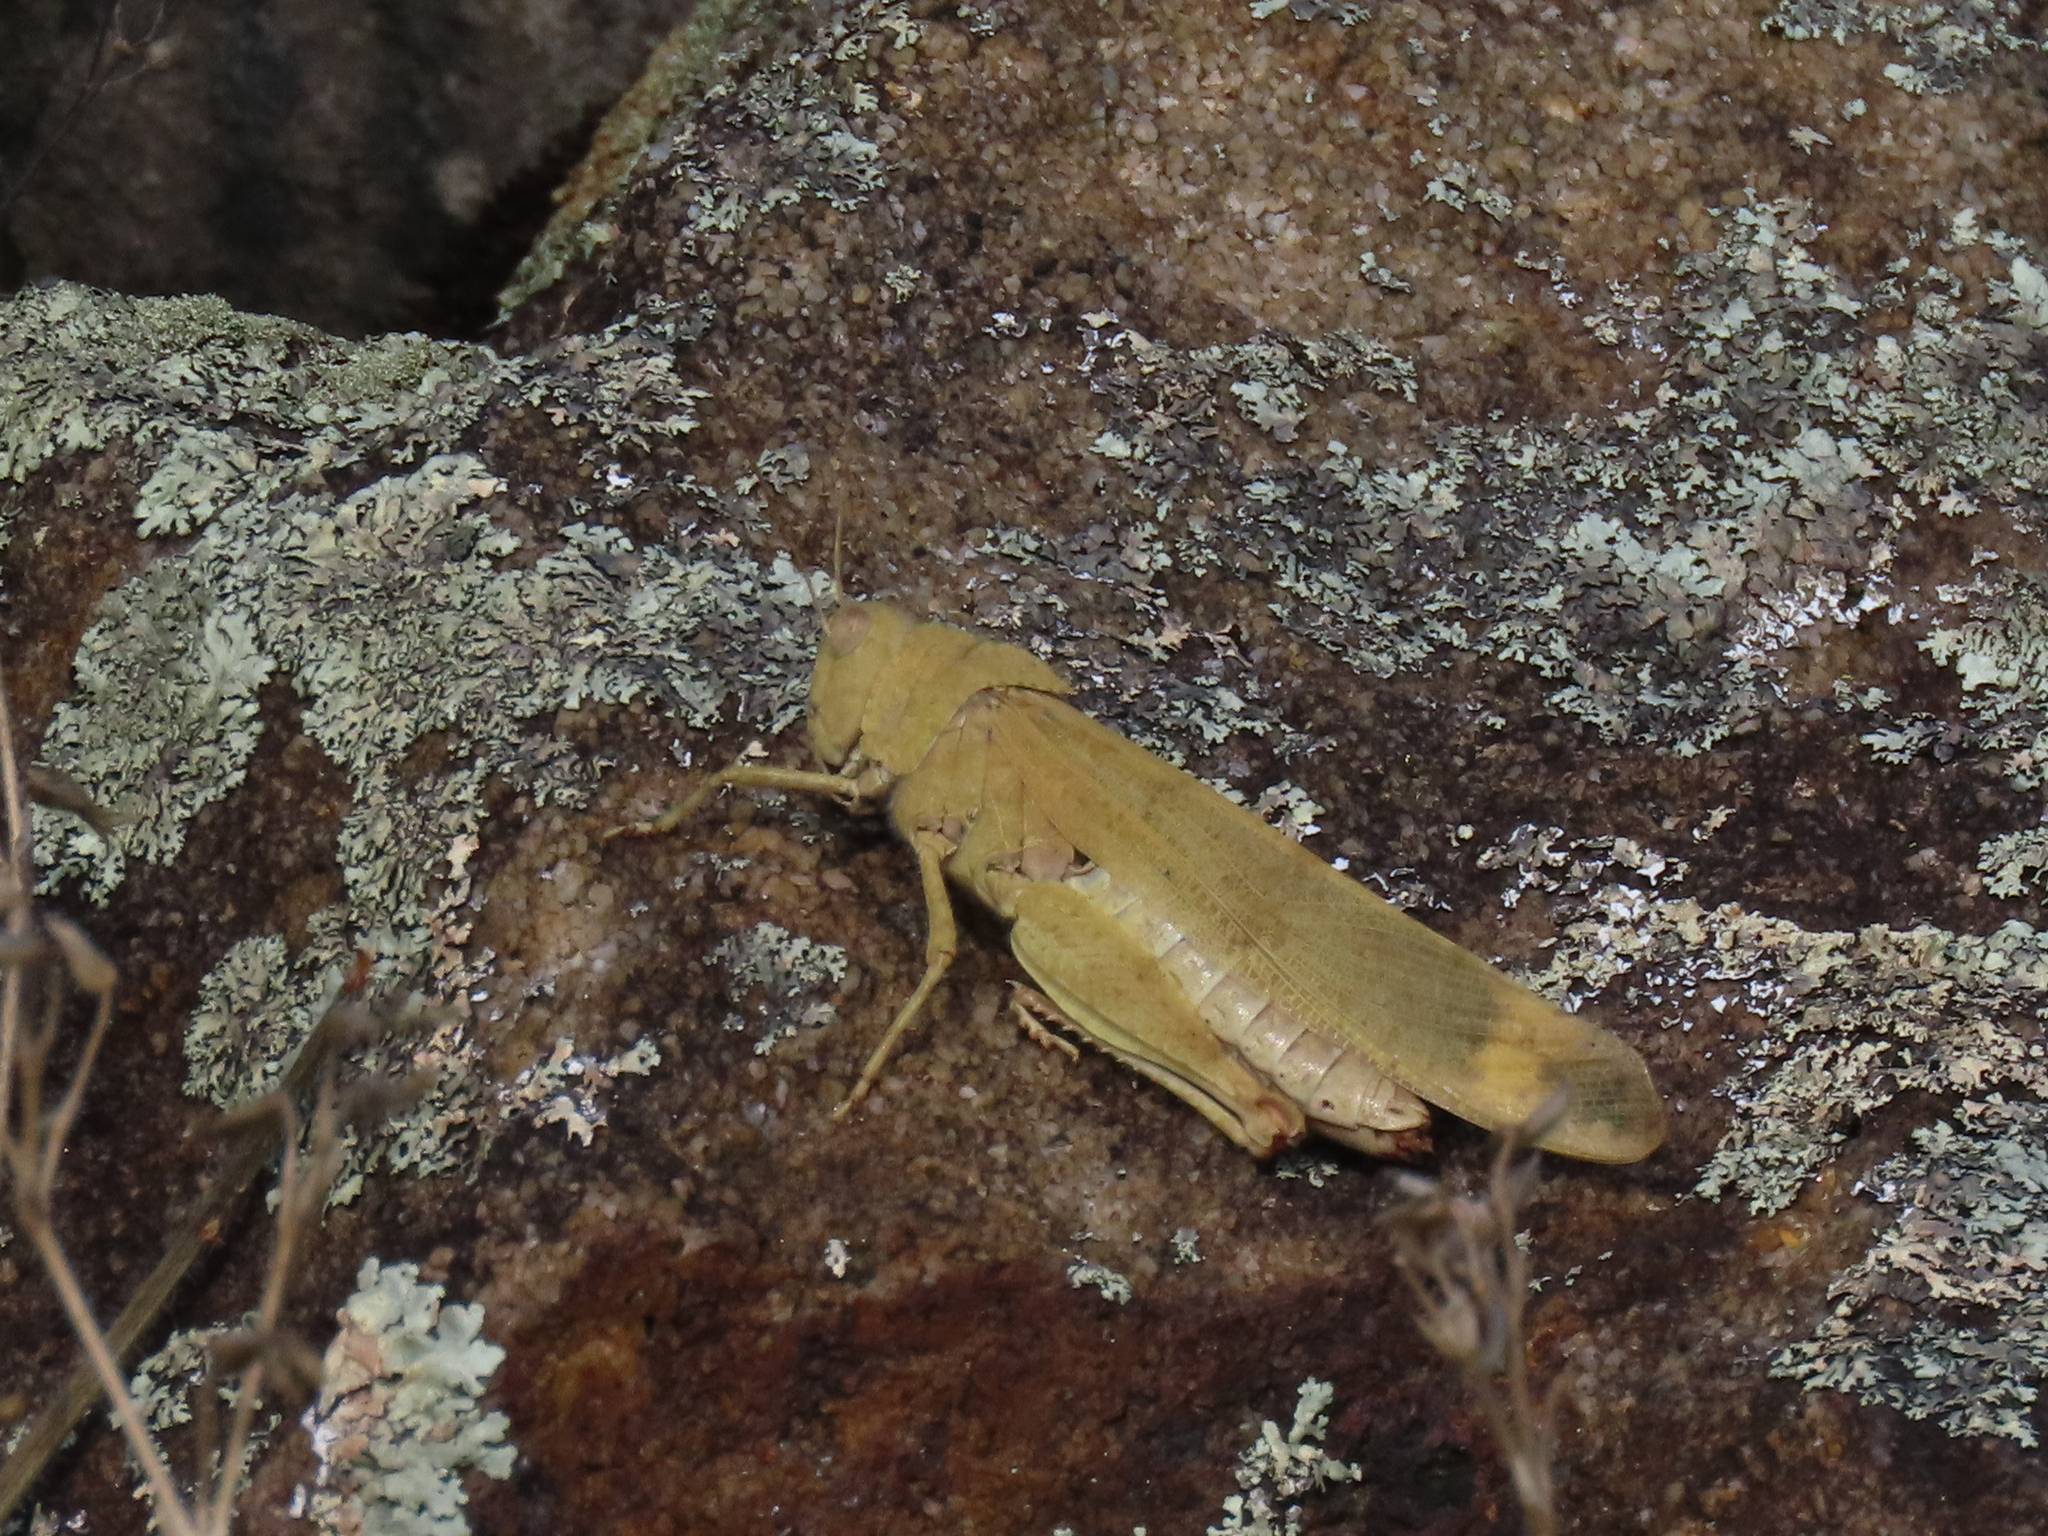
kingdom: Animalia
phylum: Arthropoda
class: Insecta
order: Orthoptera
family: Acrididae
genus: Dissosteira
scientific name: Dissosteira carolina
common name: Carolina grasshopper
